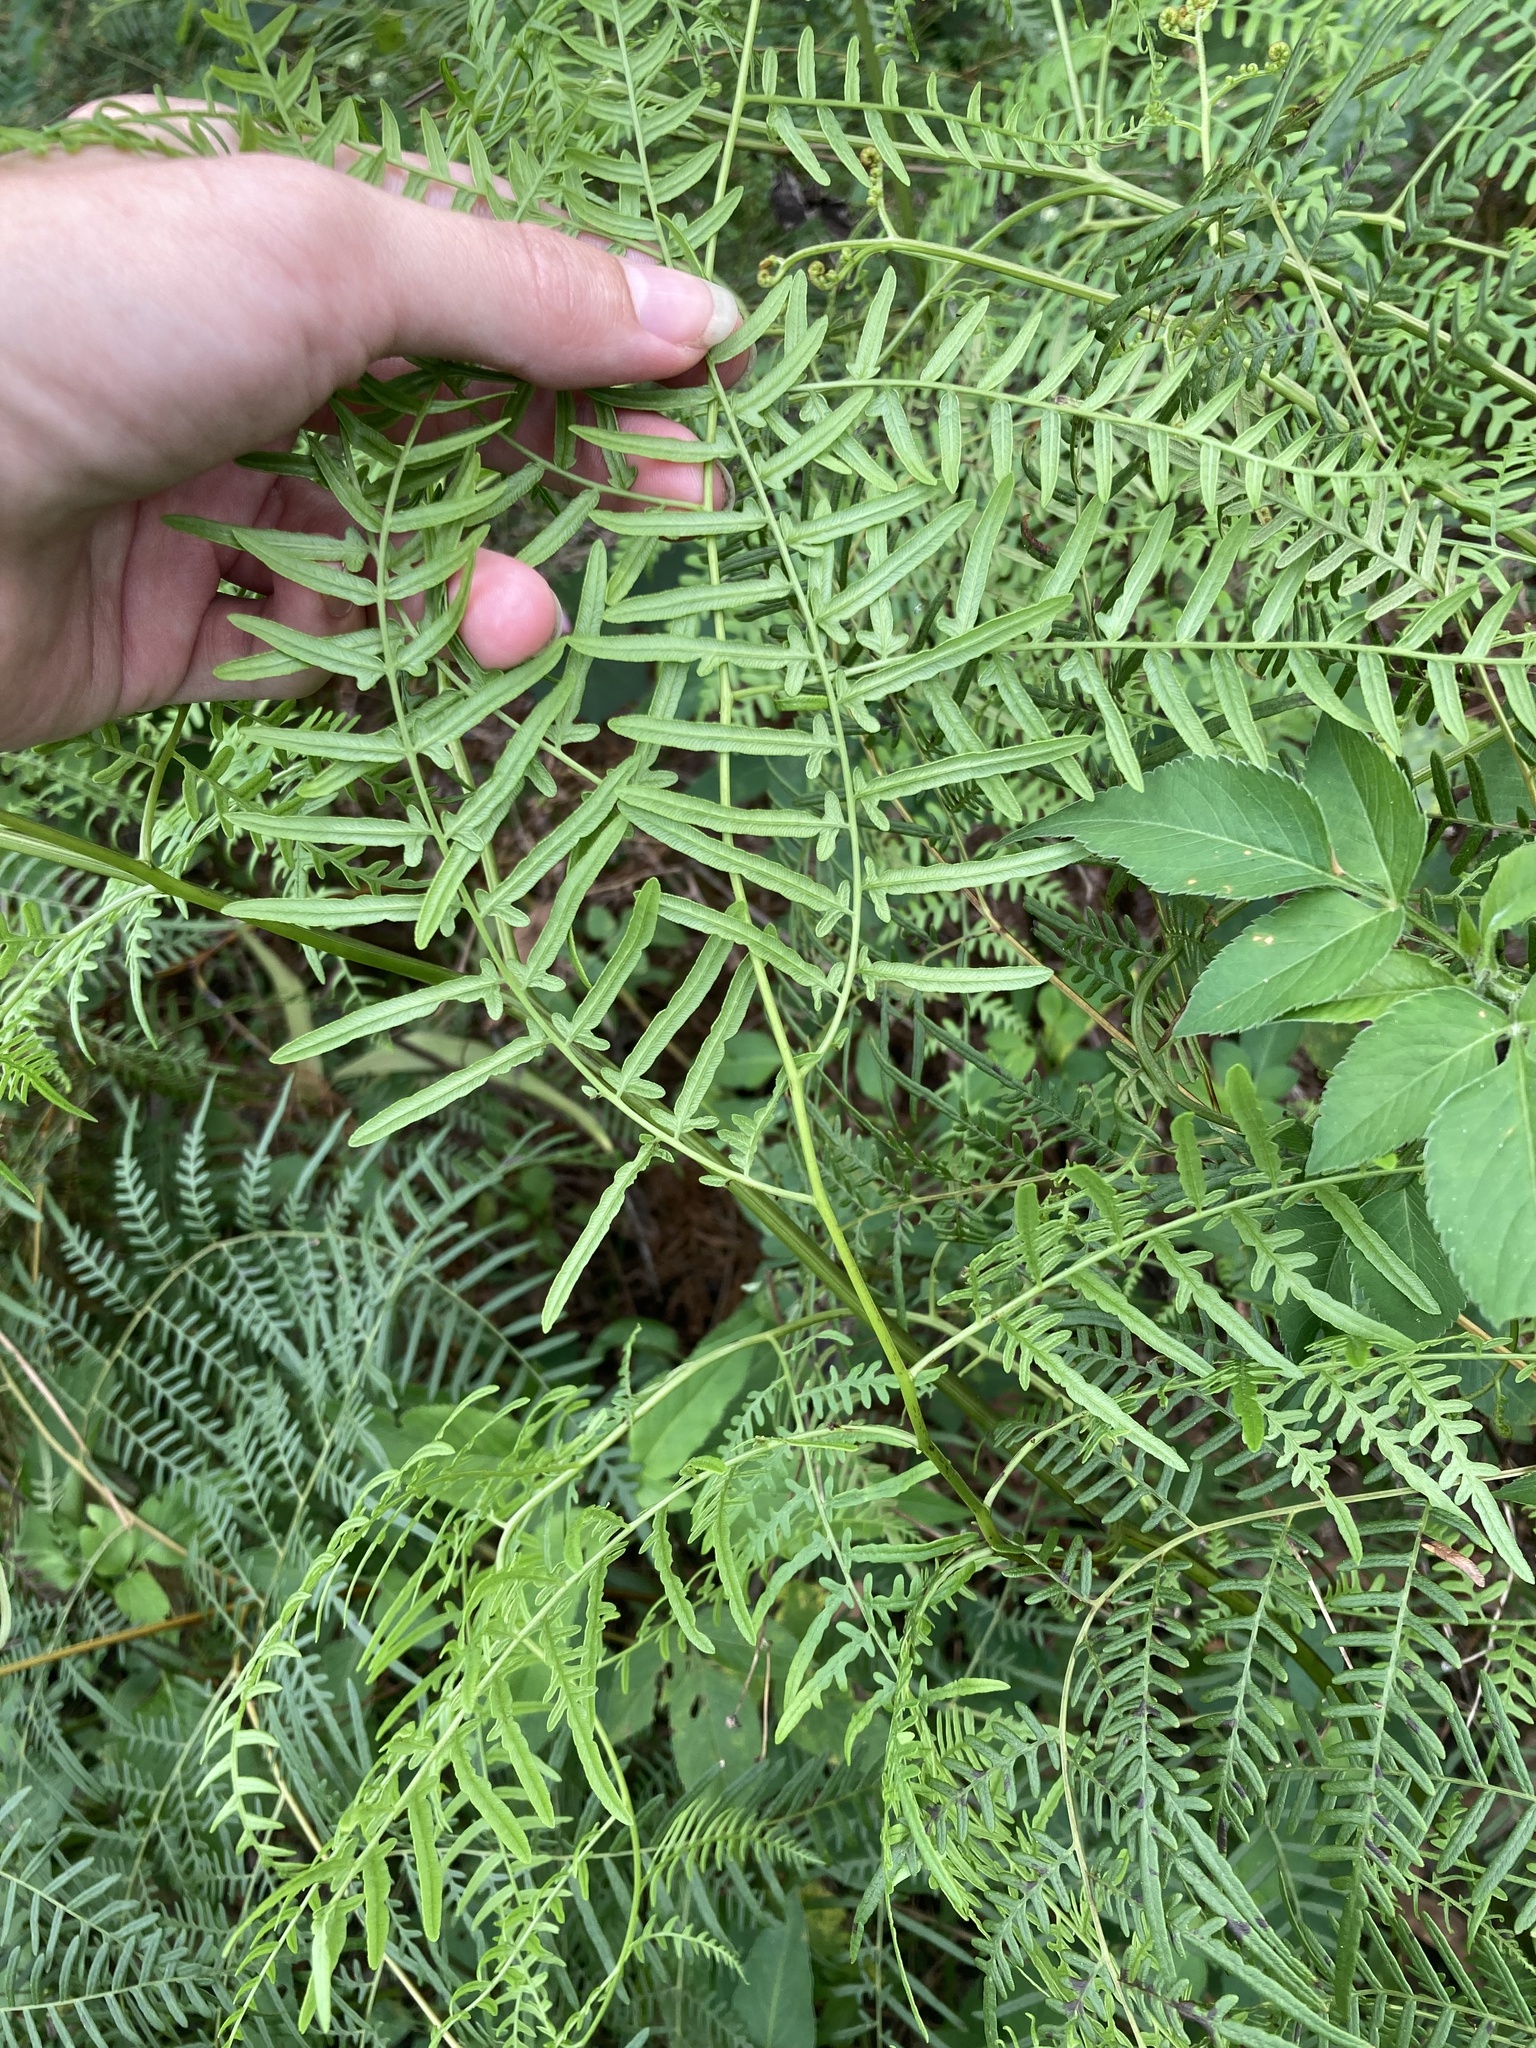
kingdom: Plantae
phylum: Tracheophyta
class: Polypodiopsida
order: Polypodiales
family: Dennstaedtiaceae
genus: Pteridium
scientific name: Pteridium caudatum
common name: Southern bracken fern
